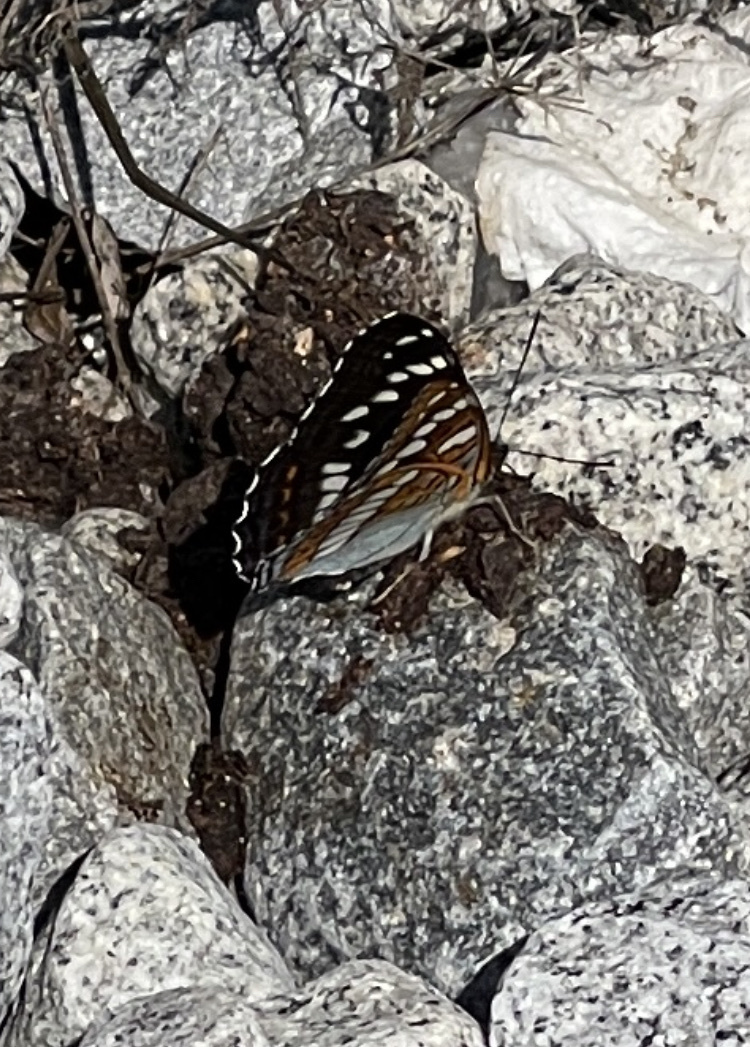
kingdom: Animalia
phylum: Arthropoda
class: Insecta
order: Lepidoptera
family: Nymphalidae
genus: Limenitis
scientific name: Limenitis populi
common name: Poplar admiral
